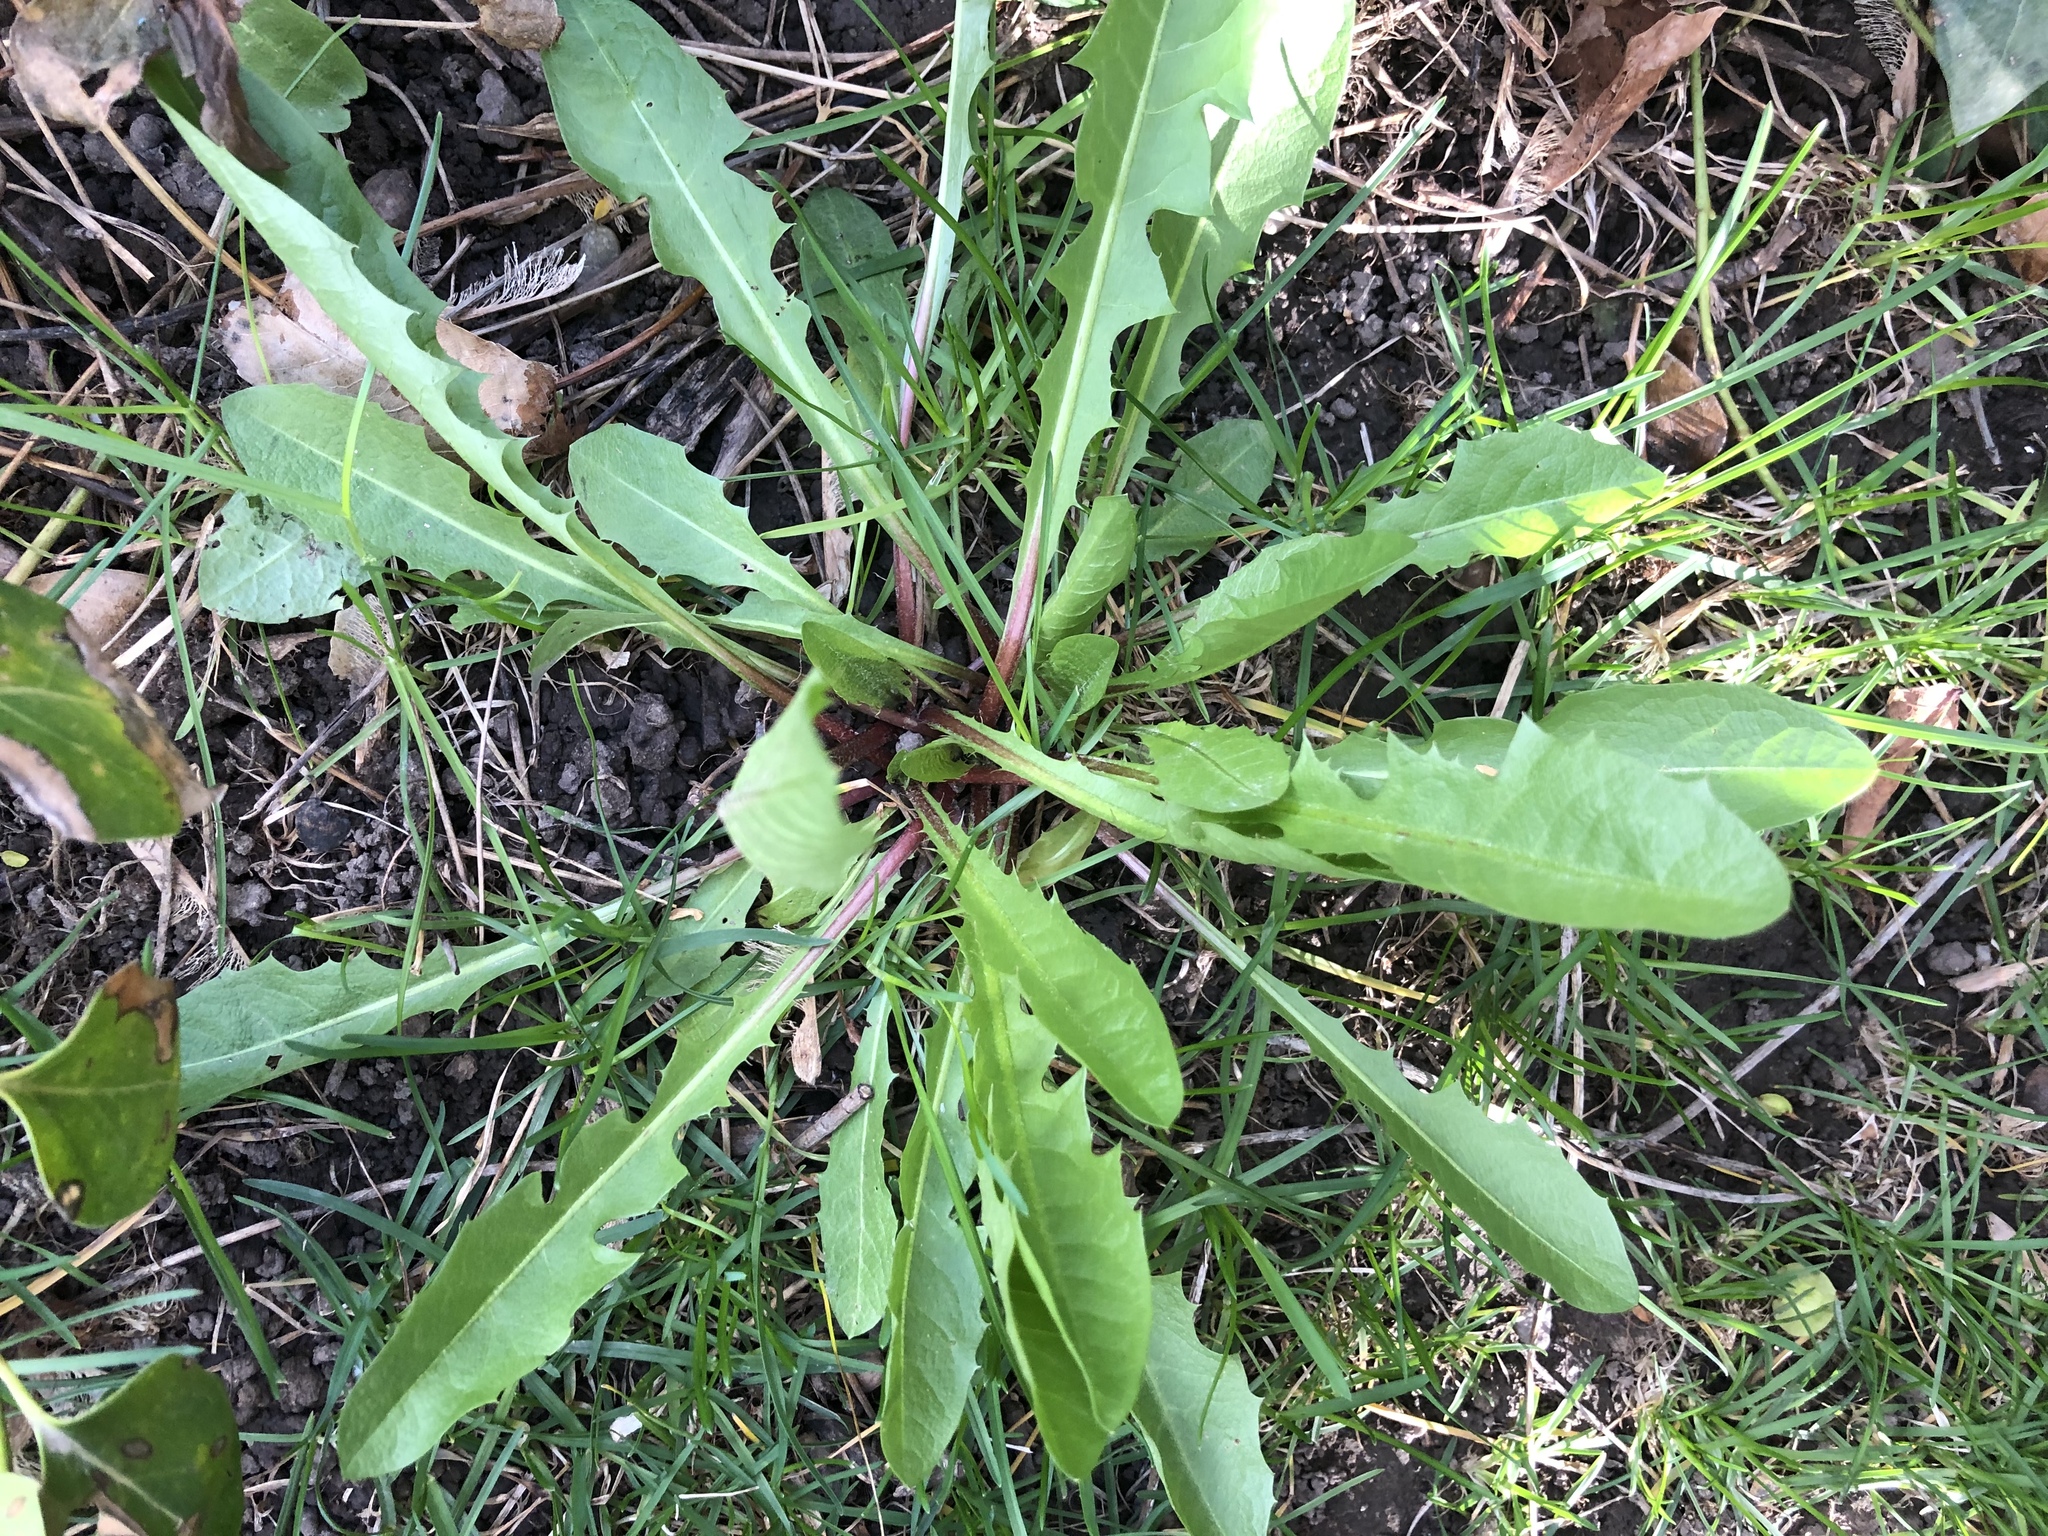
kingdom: Plantae
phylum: Tracheophyta
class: Magnoliopsida
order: Asterales
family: Asteraceae
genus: Taraxacum
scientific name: Taraxacum officinale
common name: Common dandelion
